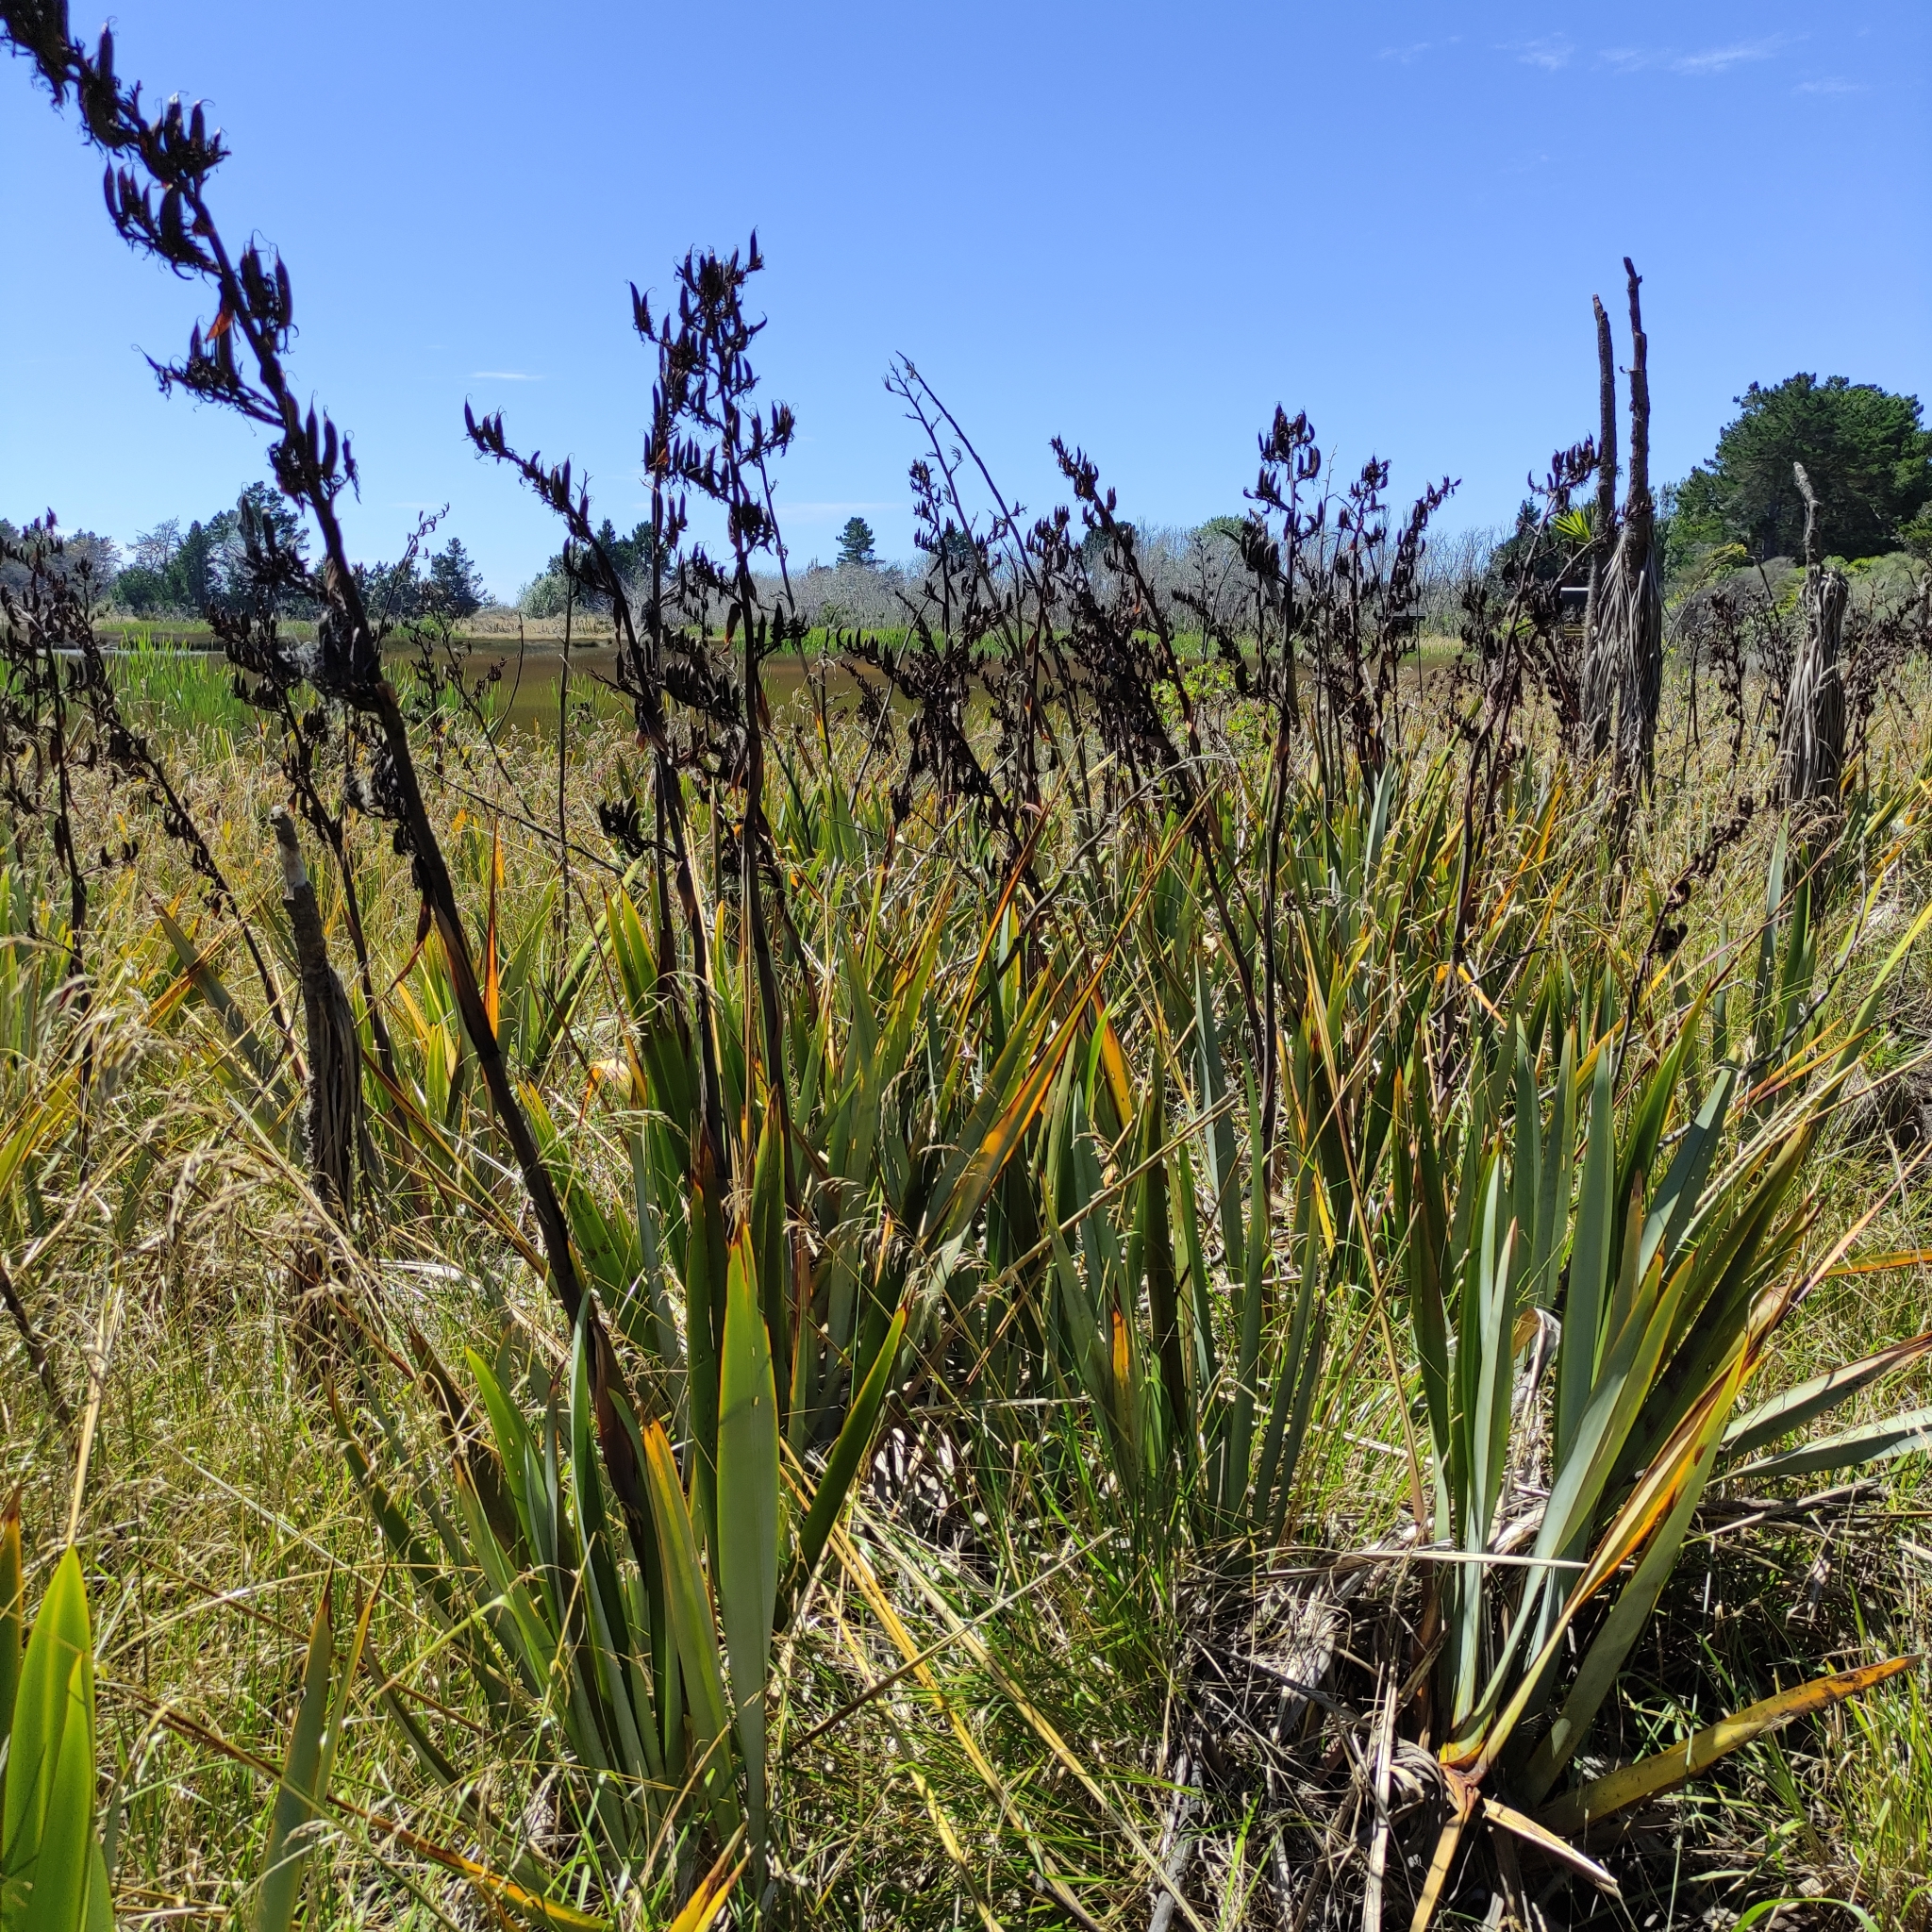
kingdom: Plantae
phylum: Tracheophyta
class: Liliopsida
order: Asparagales
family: Asphodelaceae
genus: Phormium
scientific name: Phormium tenax
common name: New zealand flax
